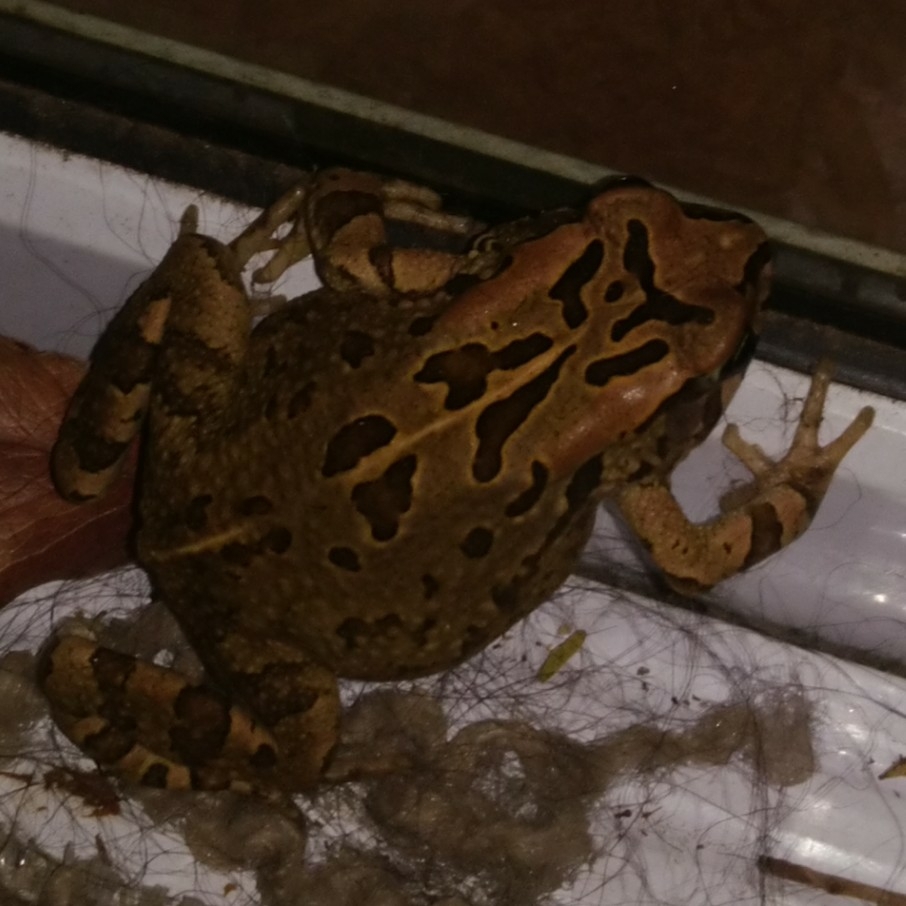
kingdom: Animalia
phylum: Chordata
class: Amphibia
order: Anura
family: Bufonidae
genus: Sclerophrys
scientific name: Sclerophrys capensis
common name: Ranger’s toad
